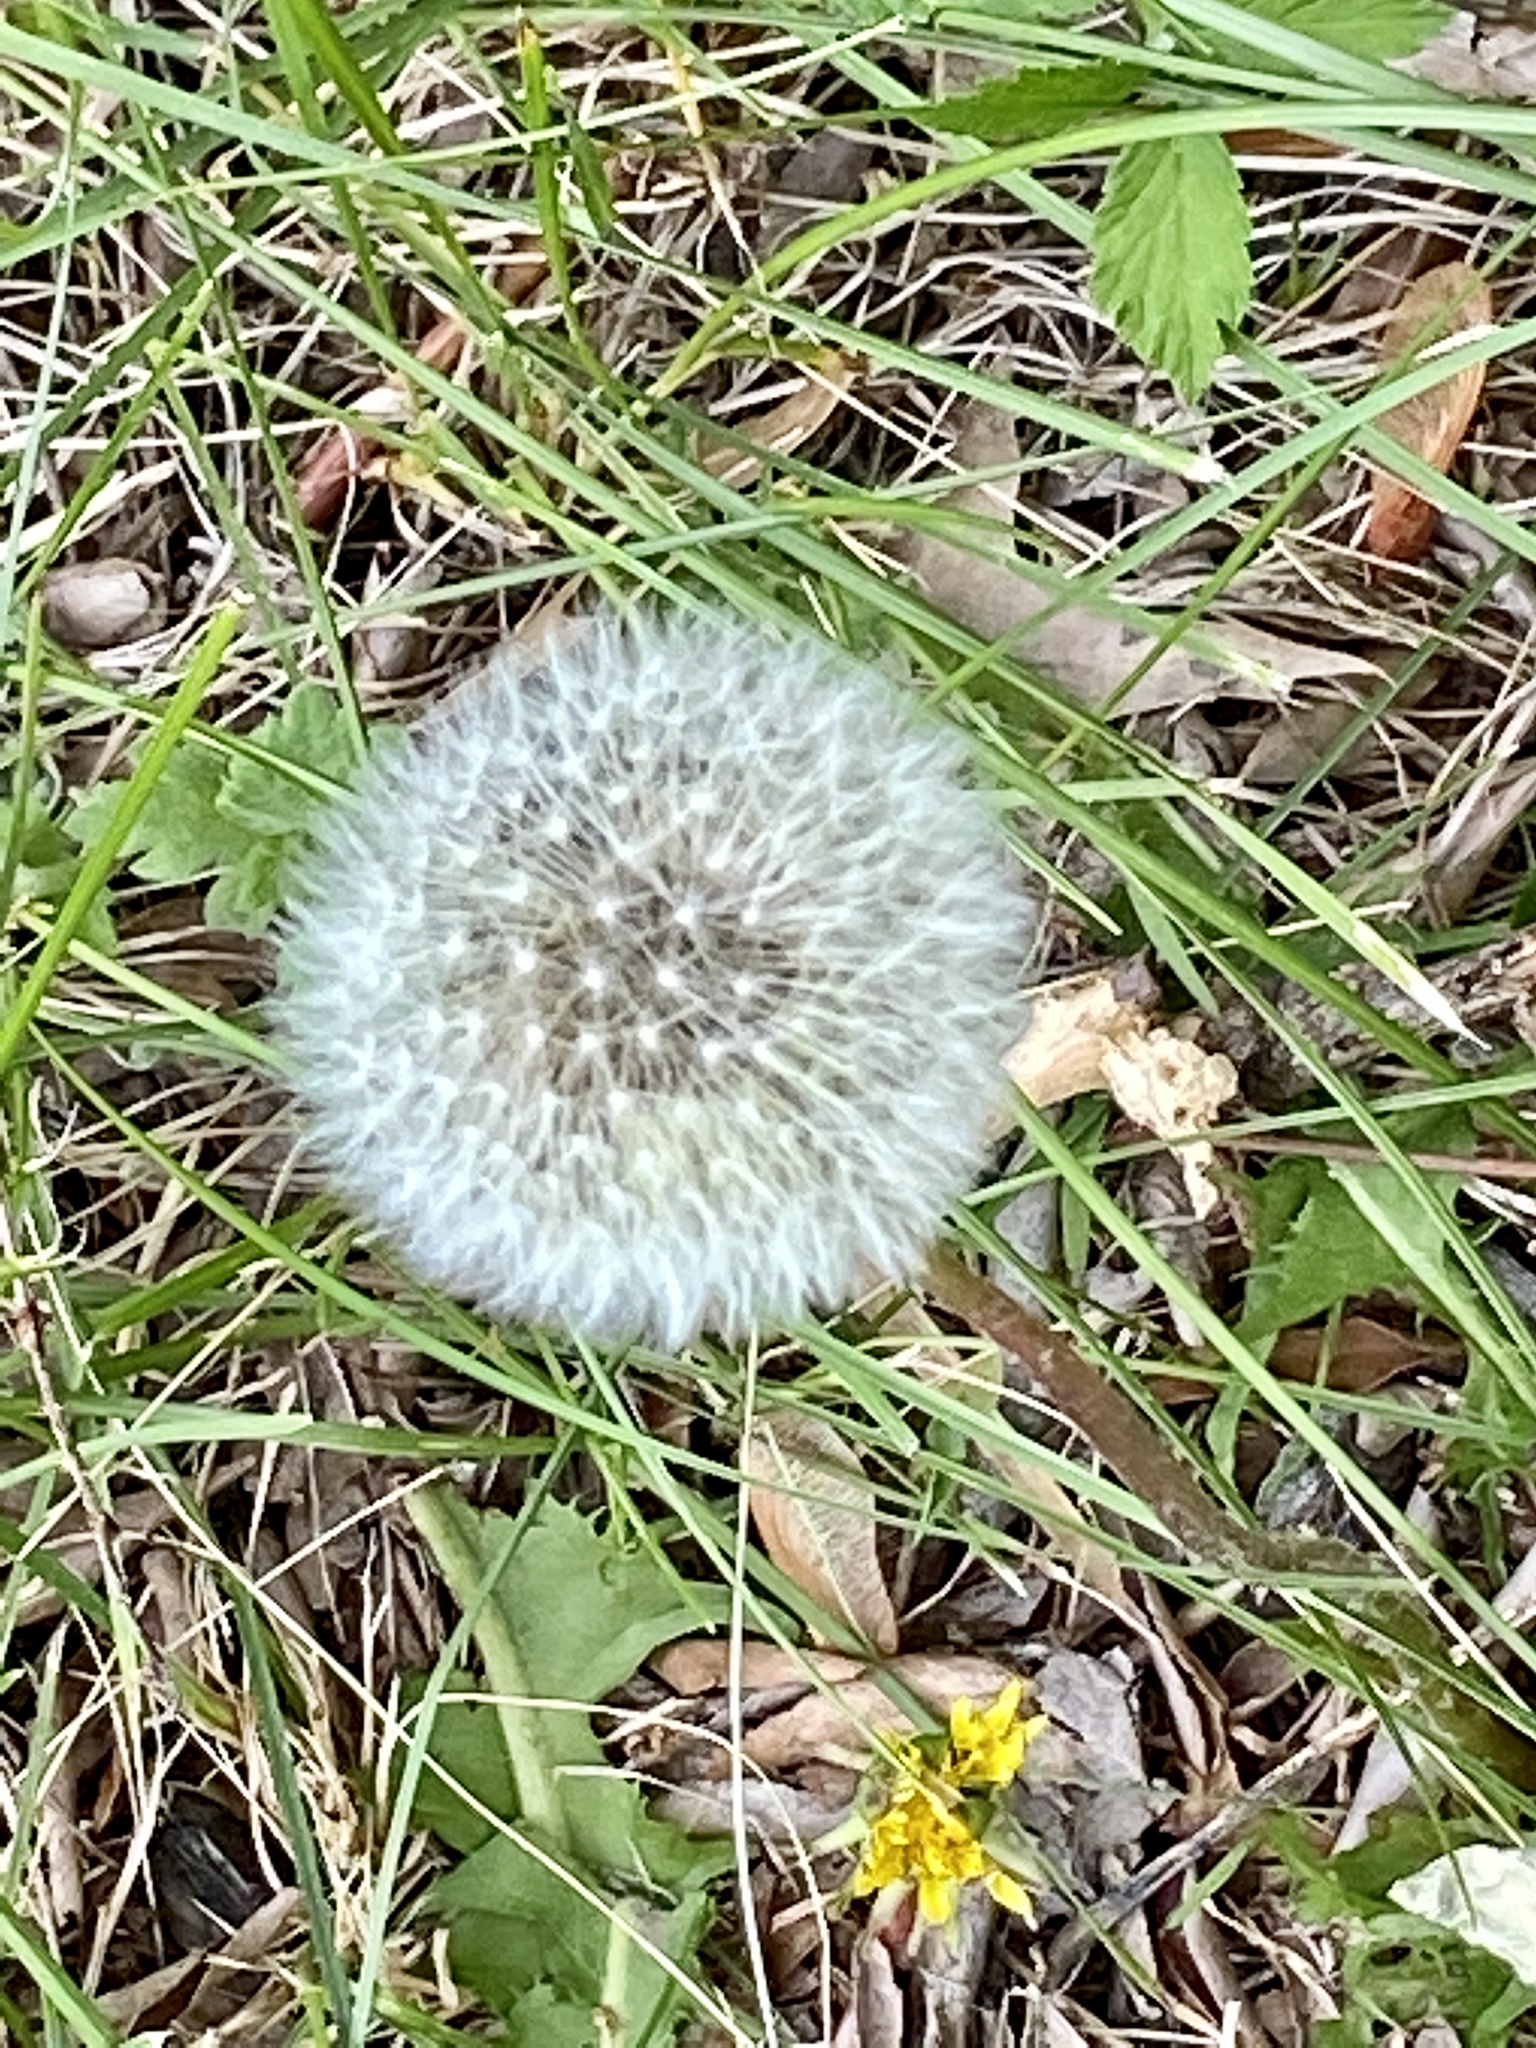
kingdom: Plantae
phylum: Tracheophyta
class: Magnoliopsida
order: Asterales
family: Asteraceae
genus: Taraxacum
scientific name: Taraxacum officinale
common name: Common dandelion
